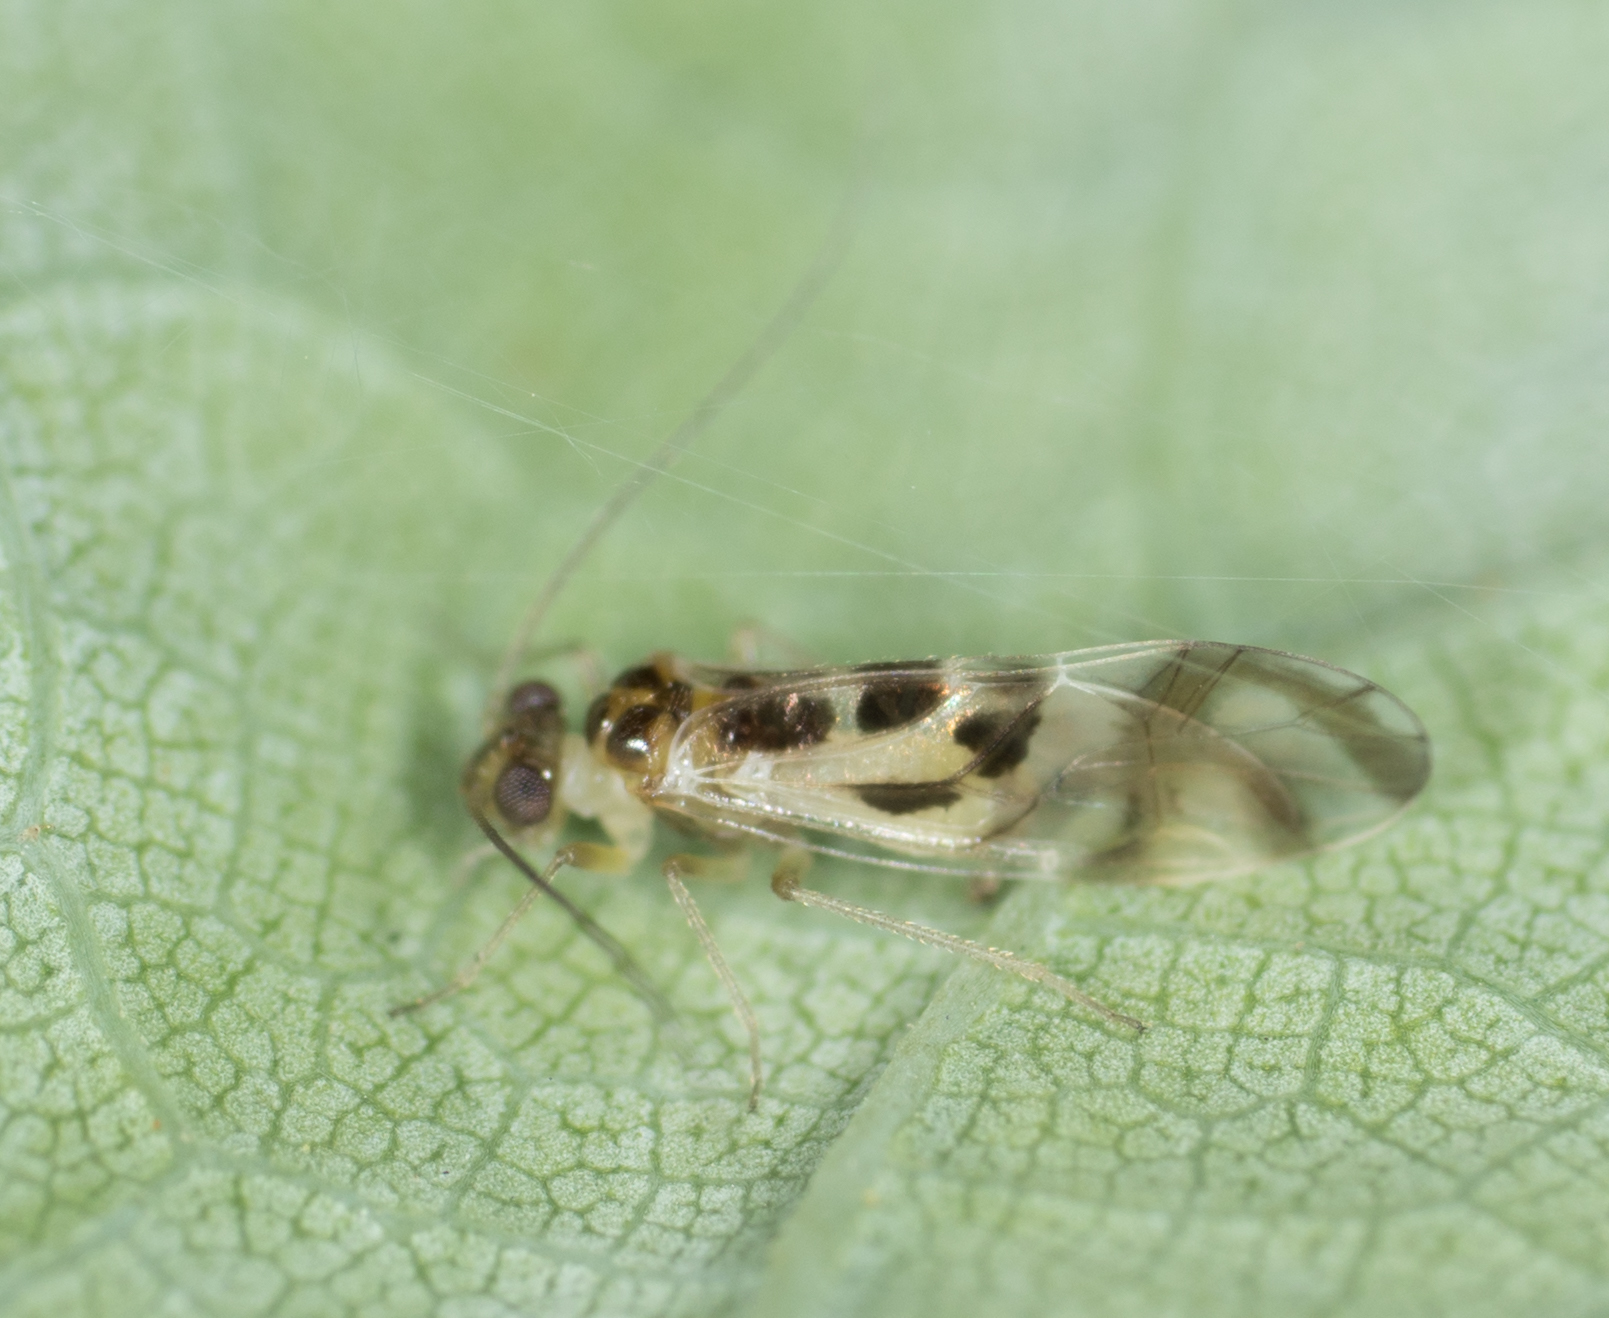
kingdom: Animalia
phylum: Arthropoda
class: Insecta
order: Psocodea
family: Stenopsocidae
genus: Graphopsocus
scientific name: Graphopsocus cruciatus
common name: Lizard bark louse
